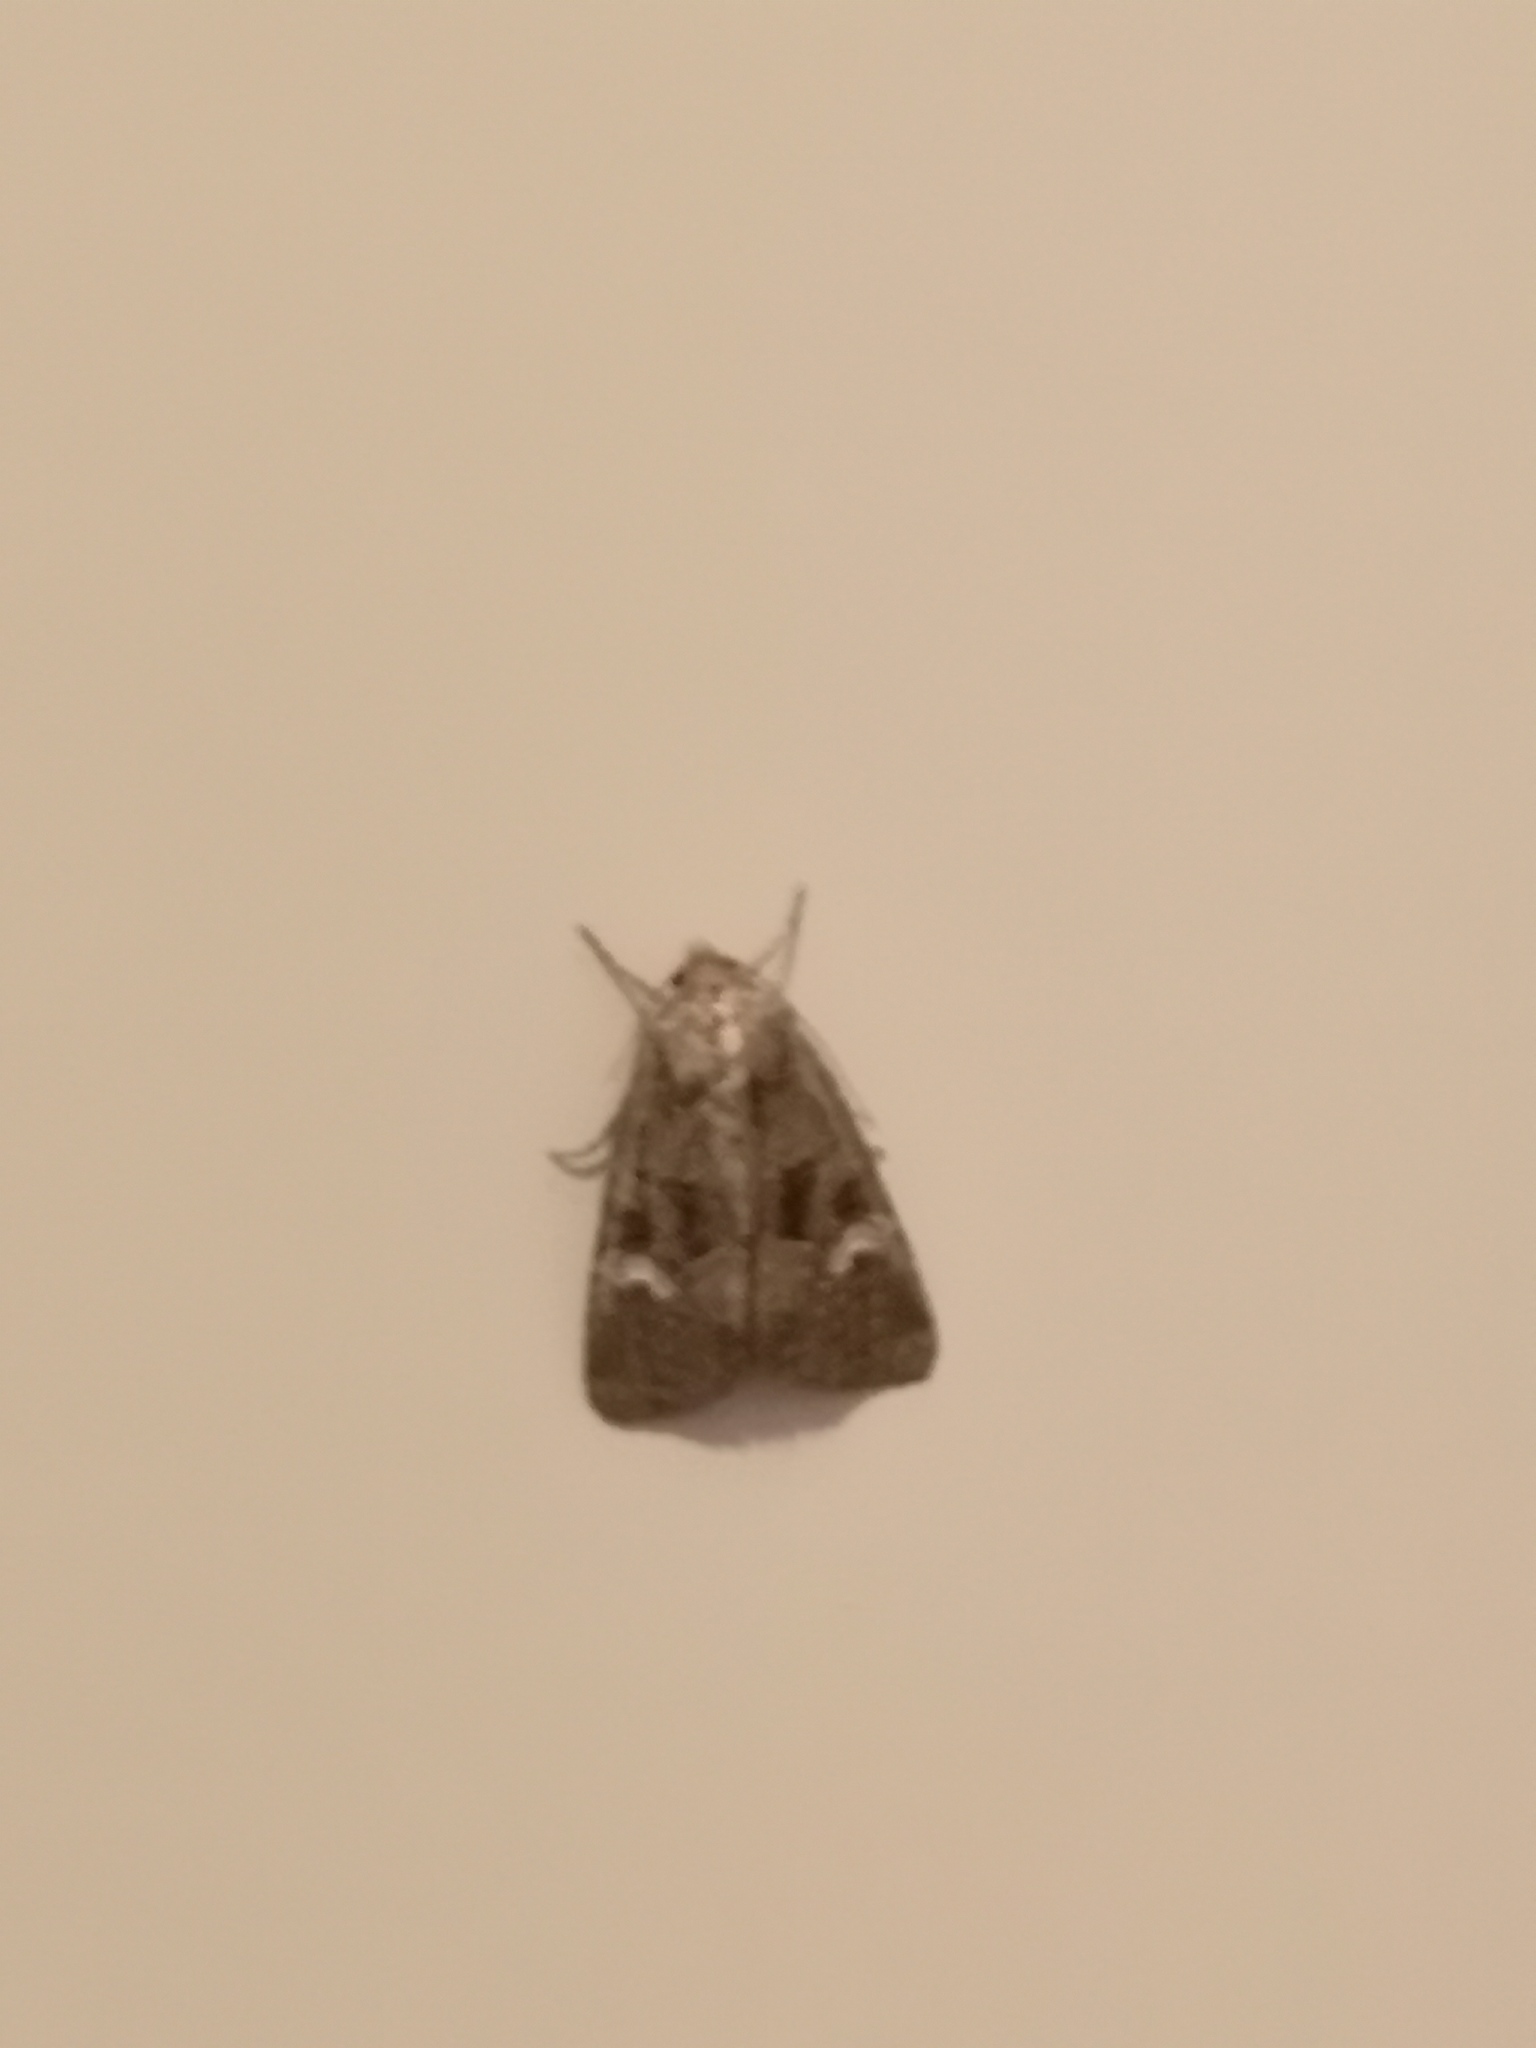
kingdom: Animalia
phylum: Arthropoda
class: Insecta
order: Lepidoptera
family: Noctuidae
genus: Mesapamea
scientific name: Mesapamea
